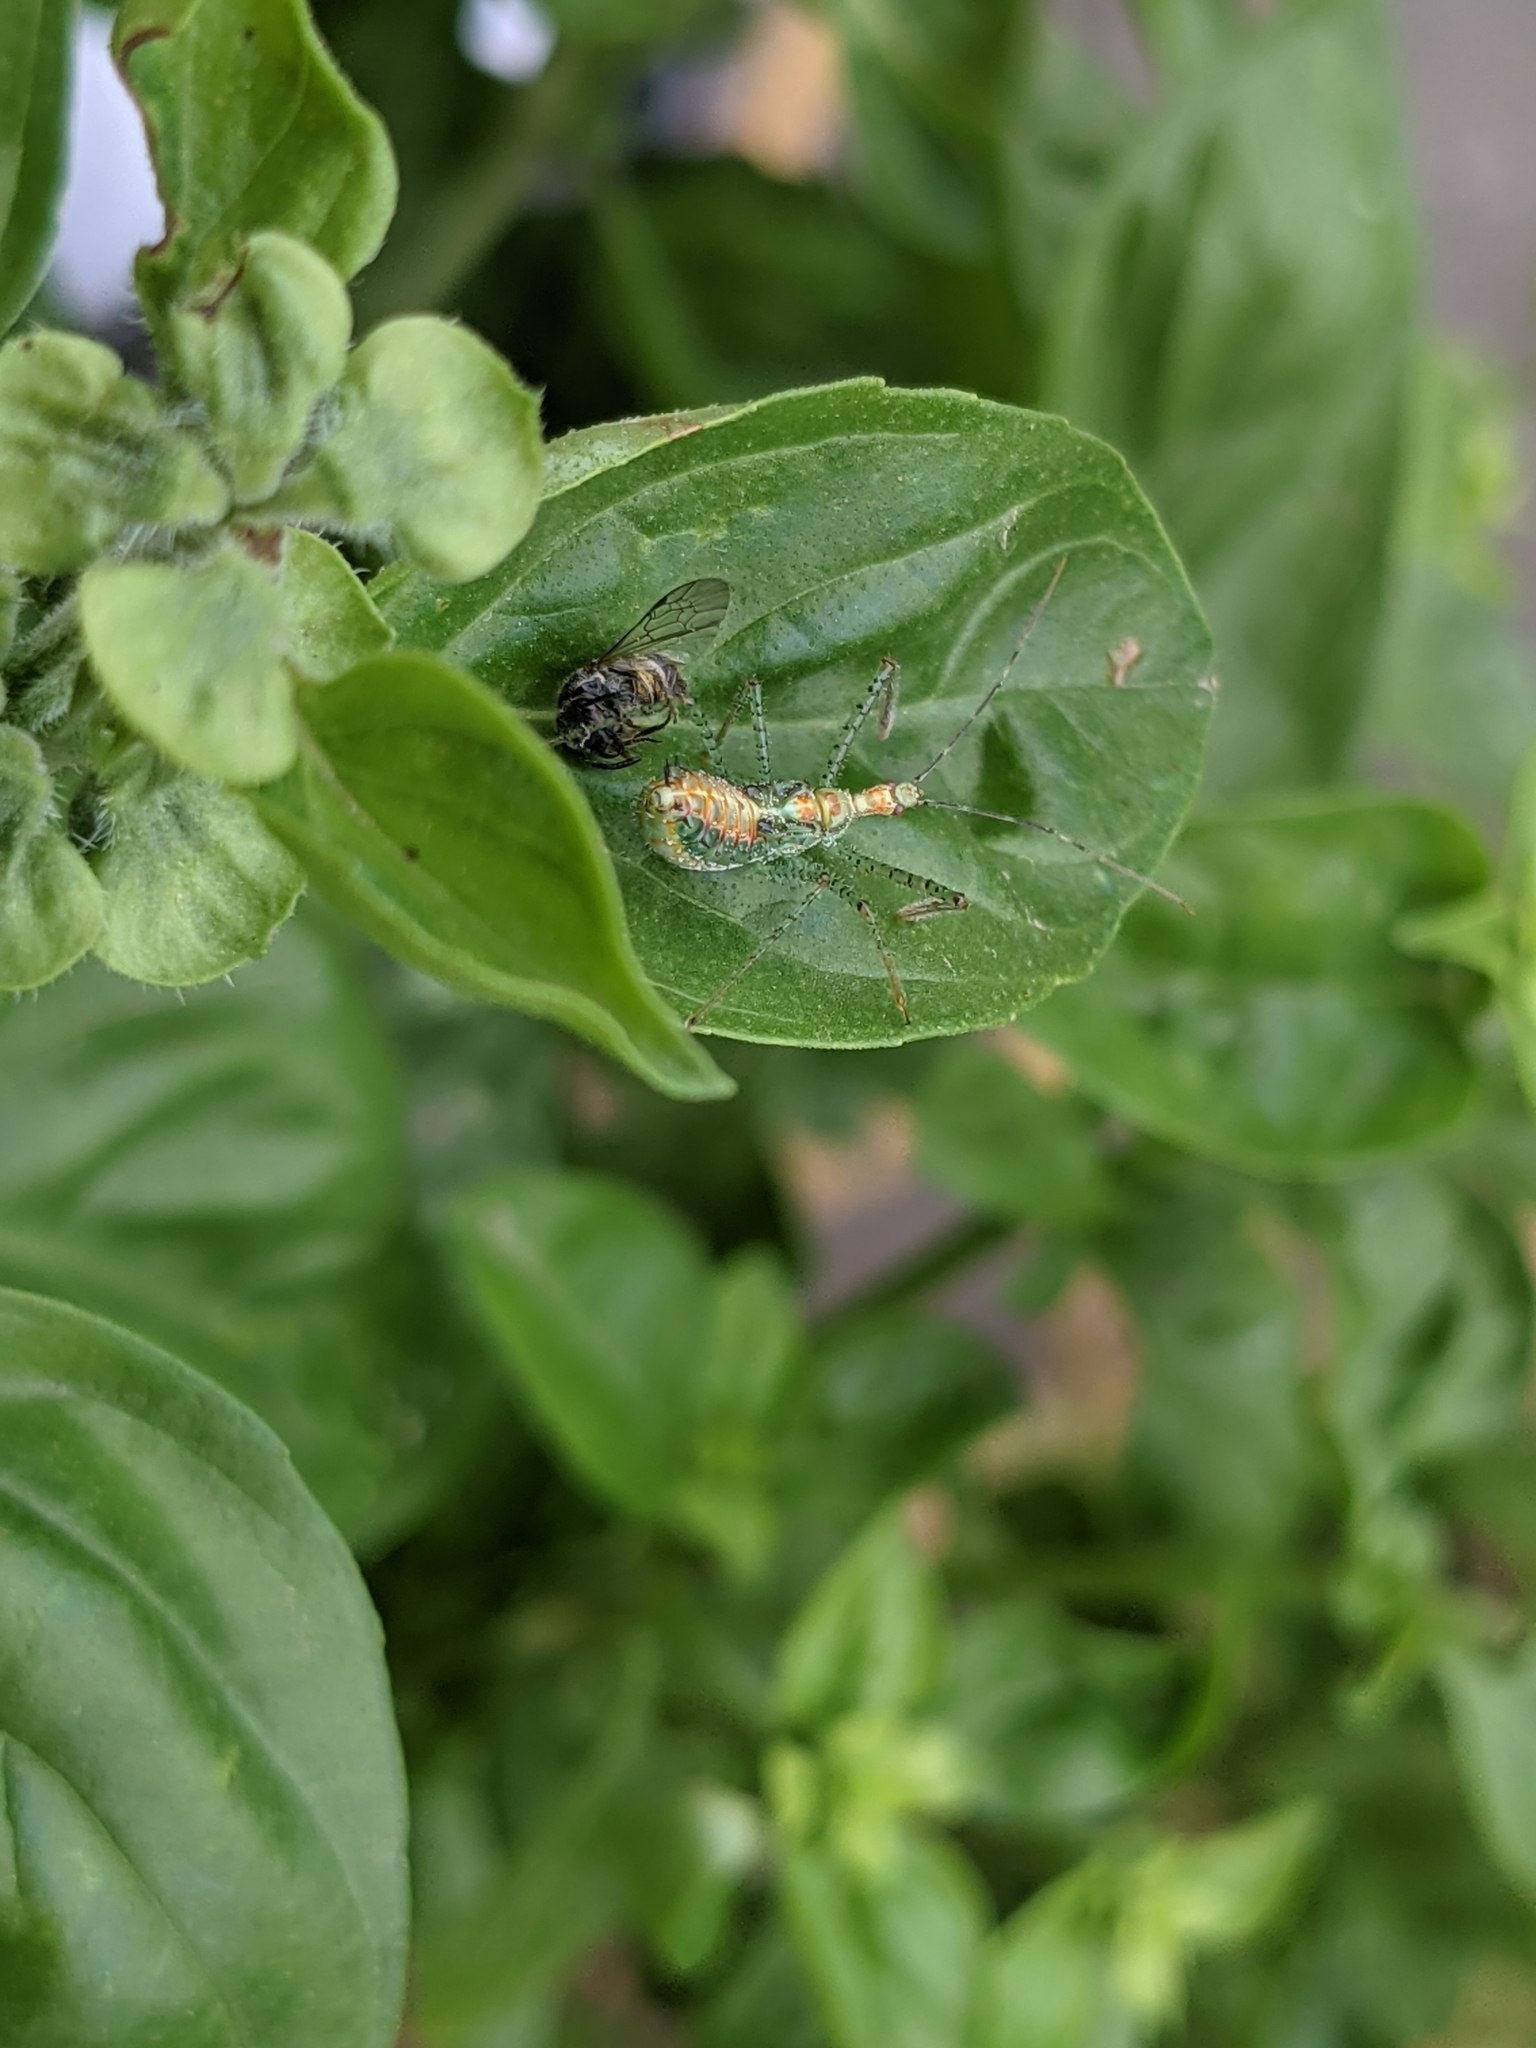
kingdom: Animalia
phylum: Arthropoda
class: Insecta
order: Hemiptera
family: Reduviidae
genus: Zelus
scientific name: Zelus renardii
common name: Assassin bug
